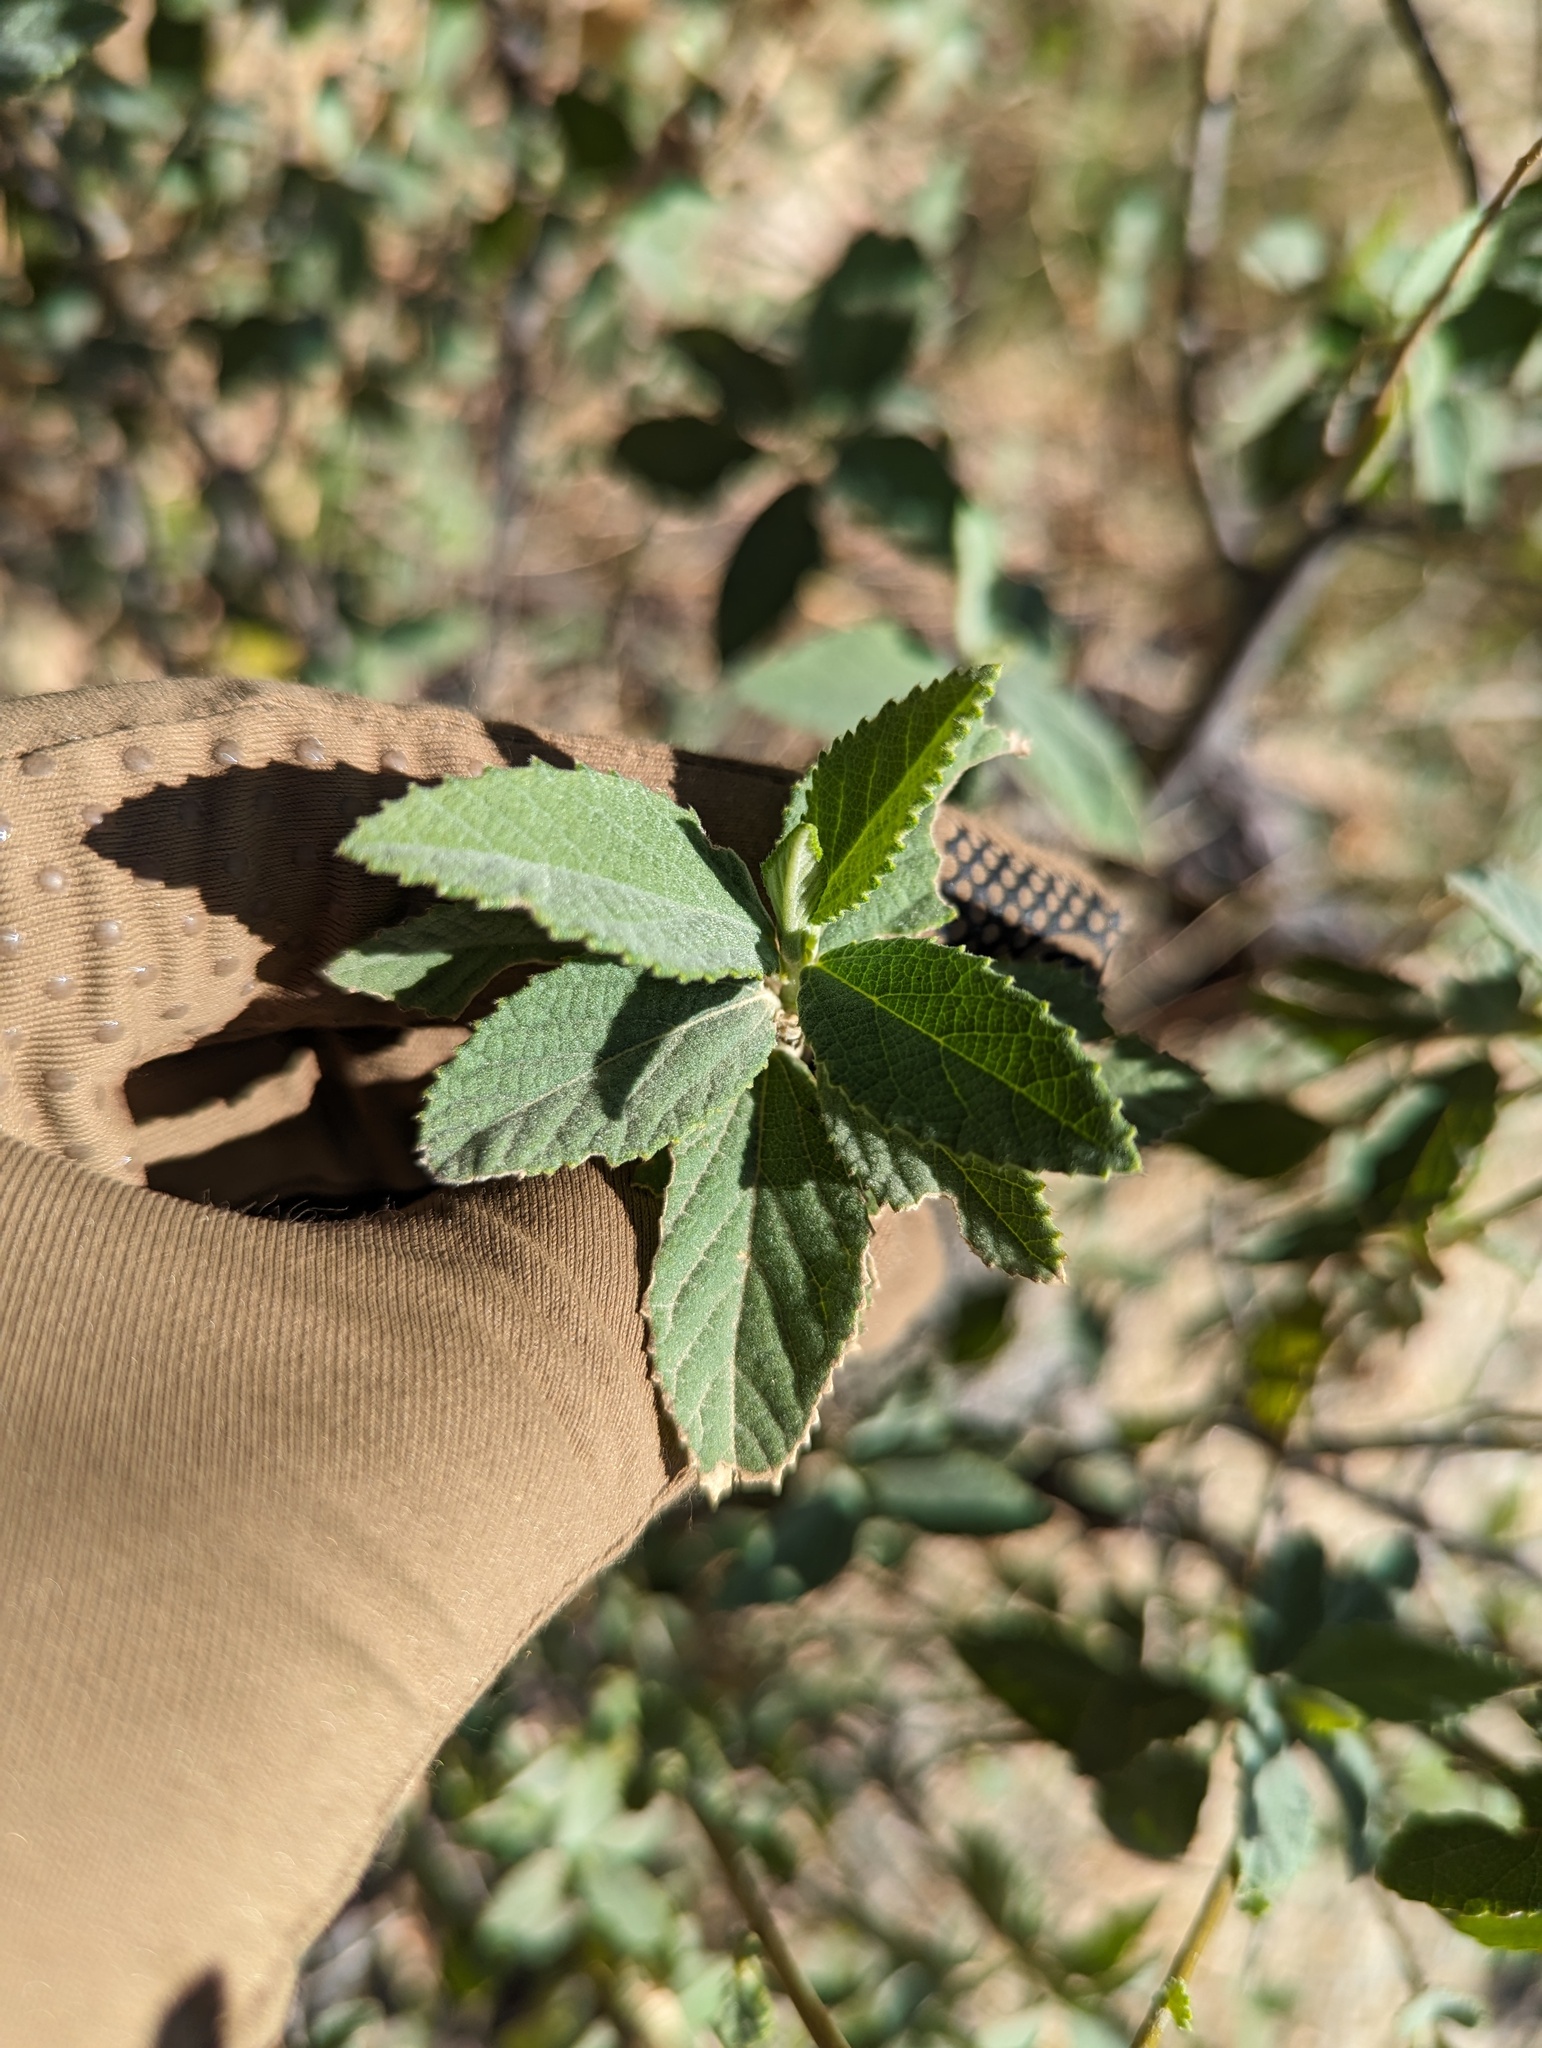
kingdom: Plantae
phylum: Tracheophyta
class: Magnoliopsida
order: Malpighiales
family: Euphorbiaceae
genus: Bernardia
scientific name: Bernardia lagunensis
